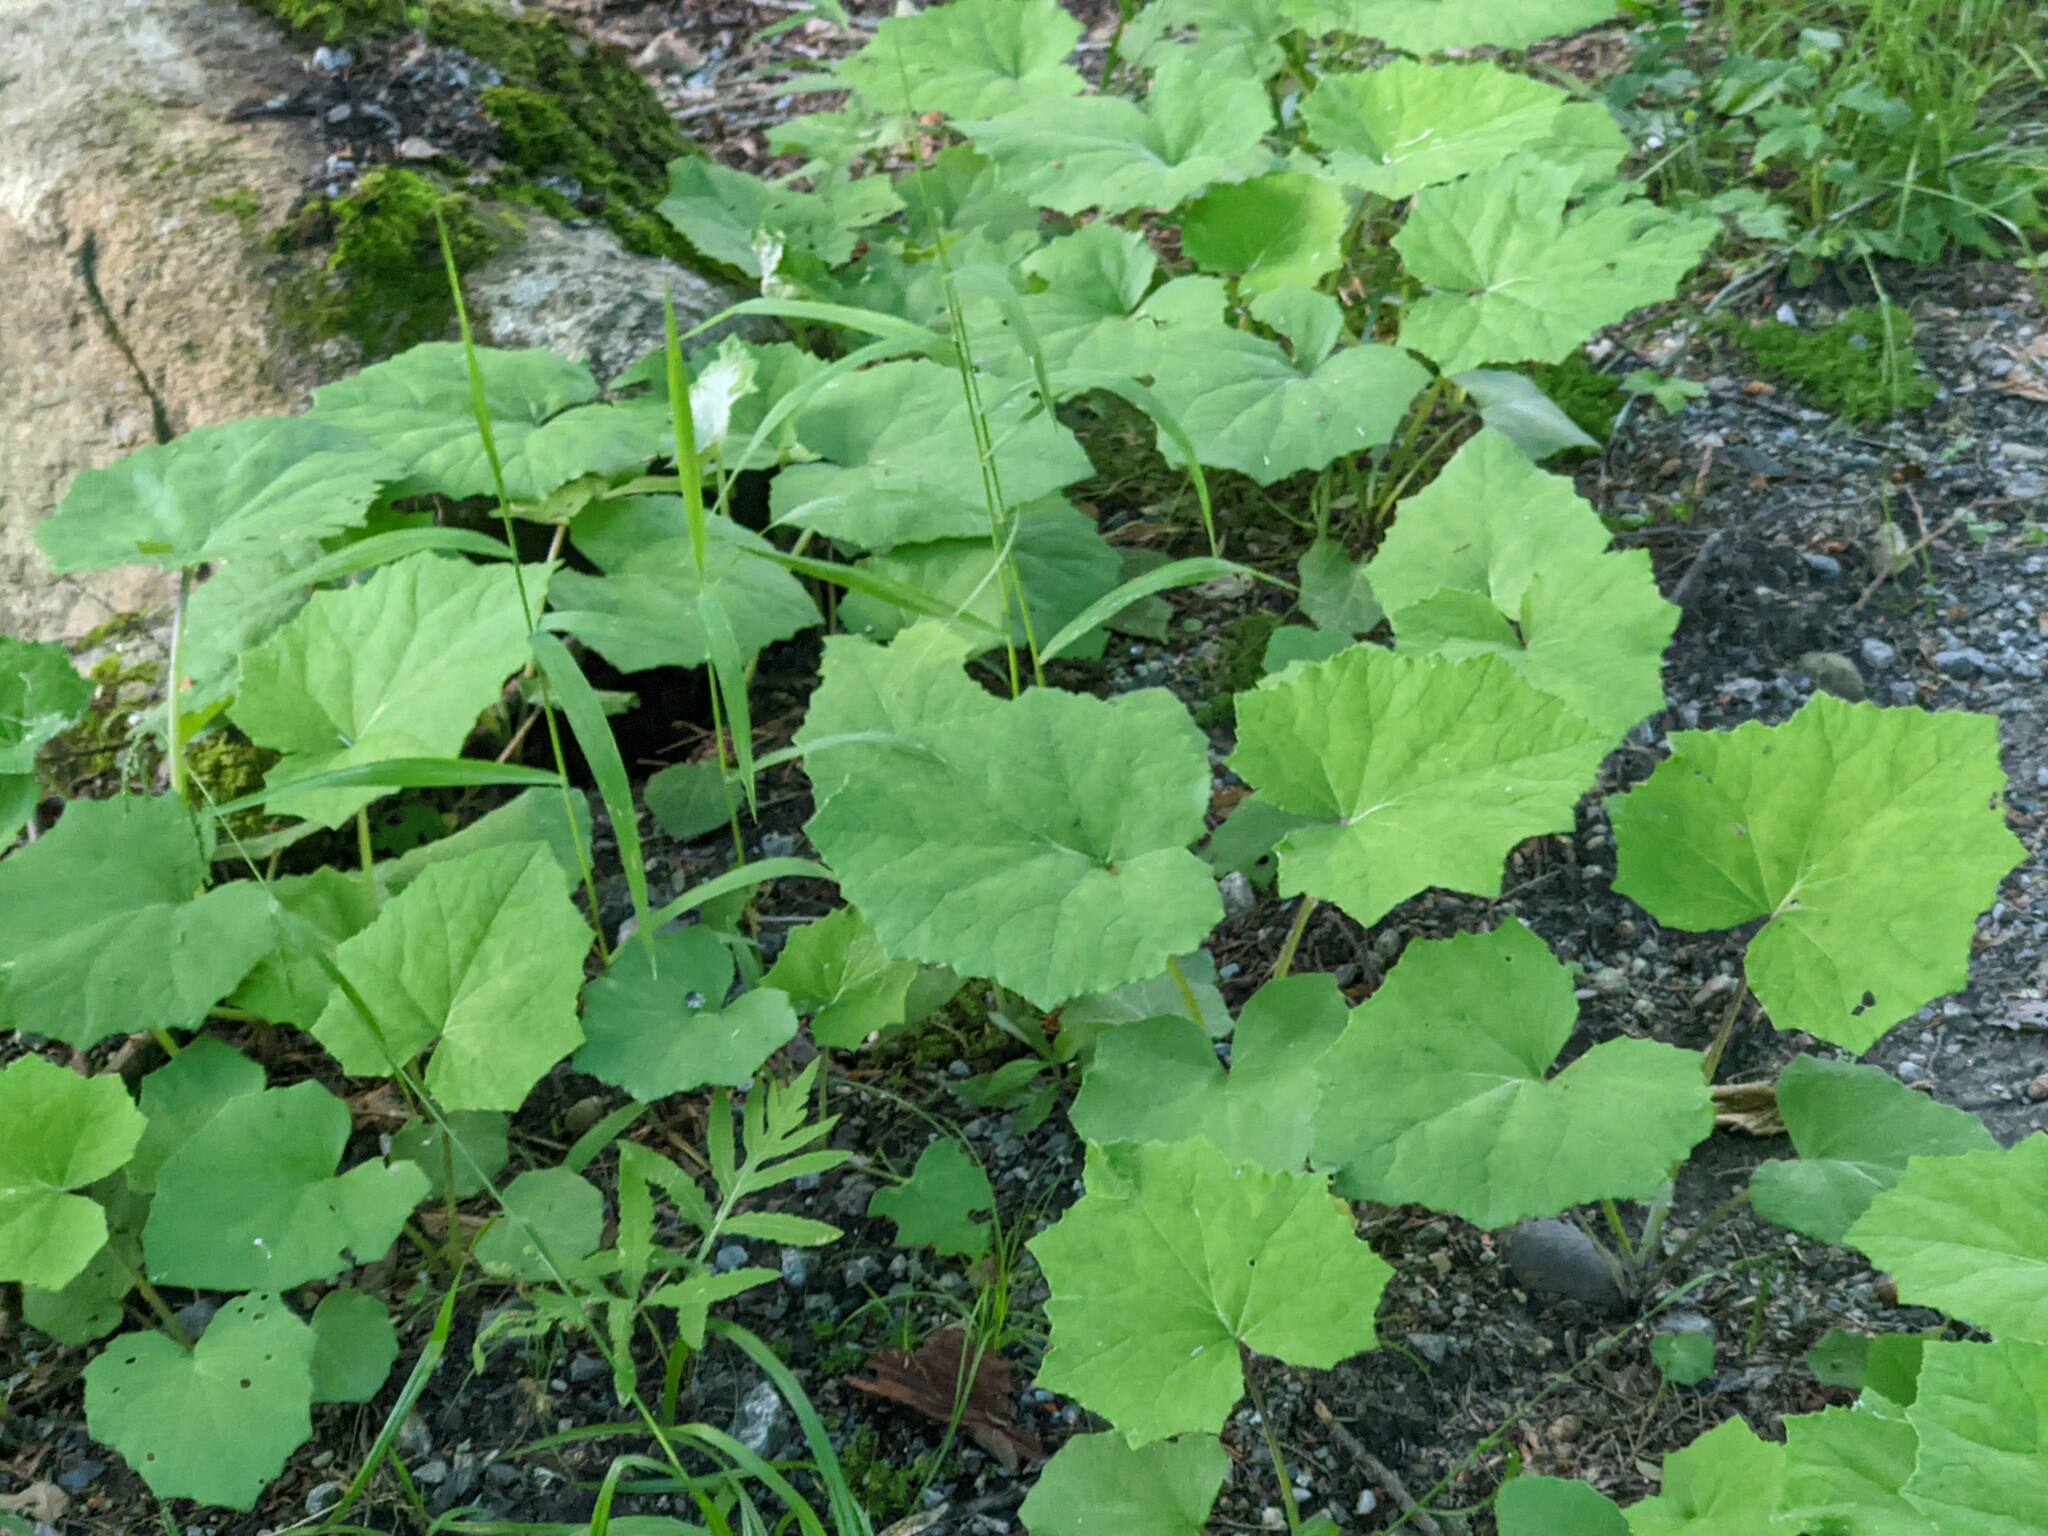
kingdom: Plantae
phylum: Tracheophyta
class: Magnoliopsida
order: Asterales
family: Asteraceae
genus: Tussilago
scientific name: Tussilago farfara
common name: Coltsfoot
